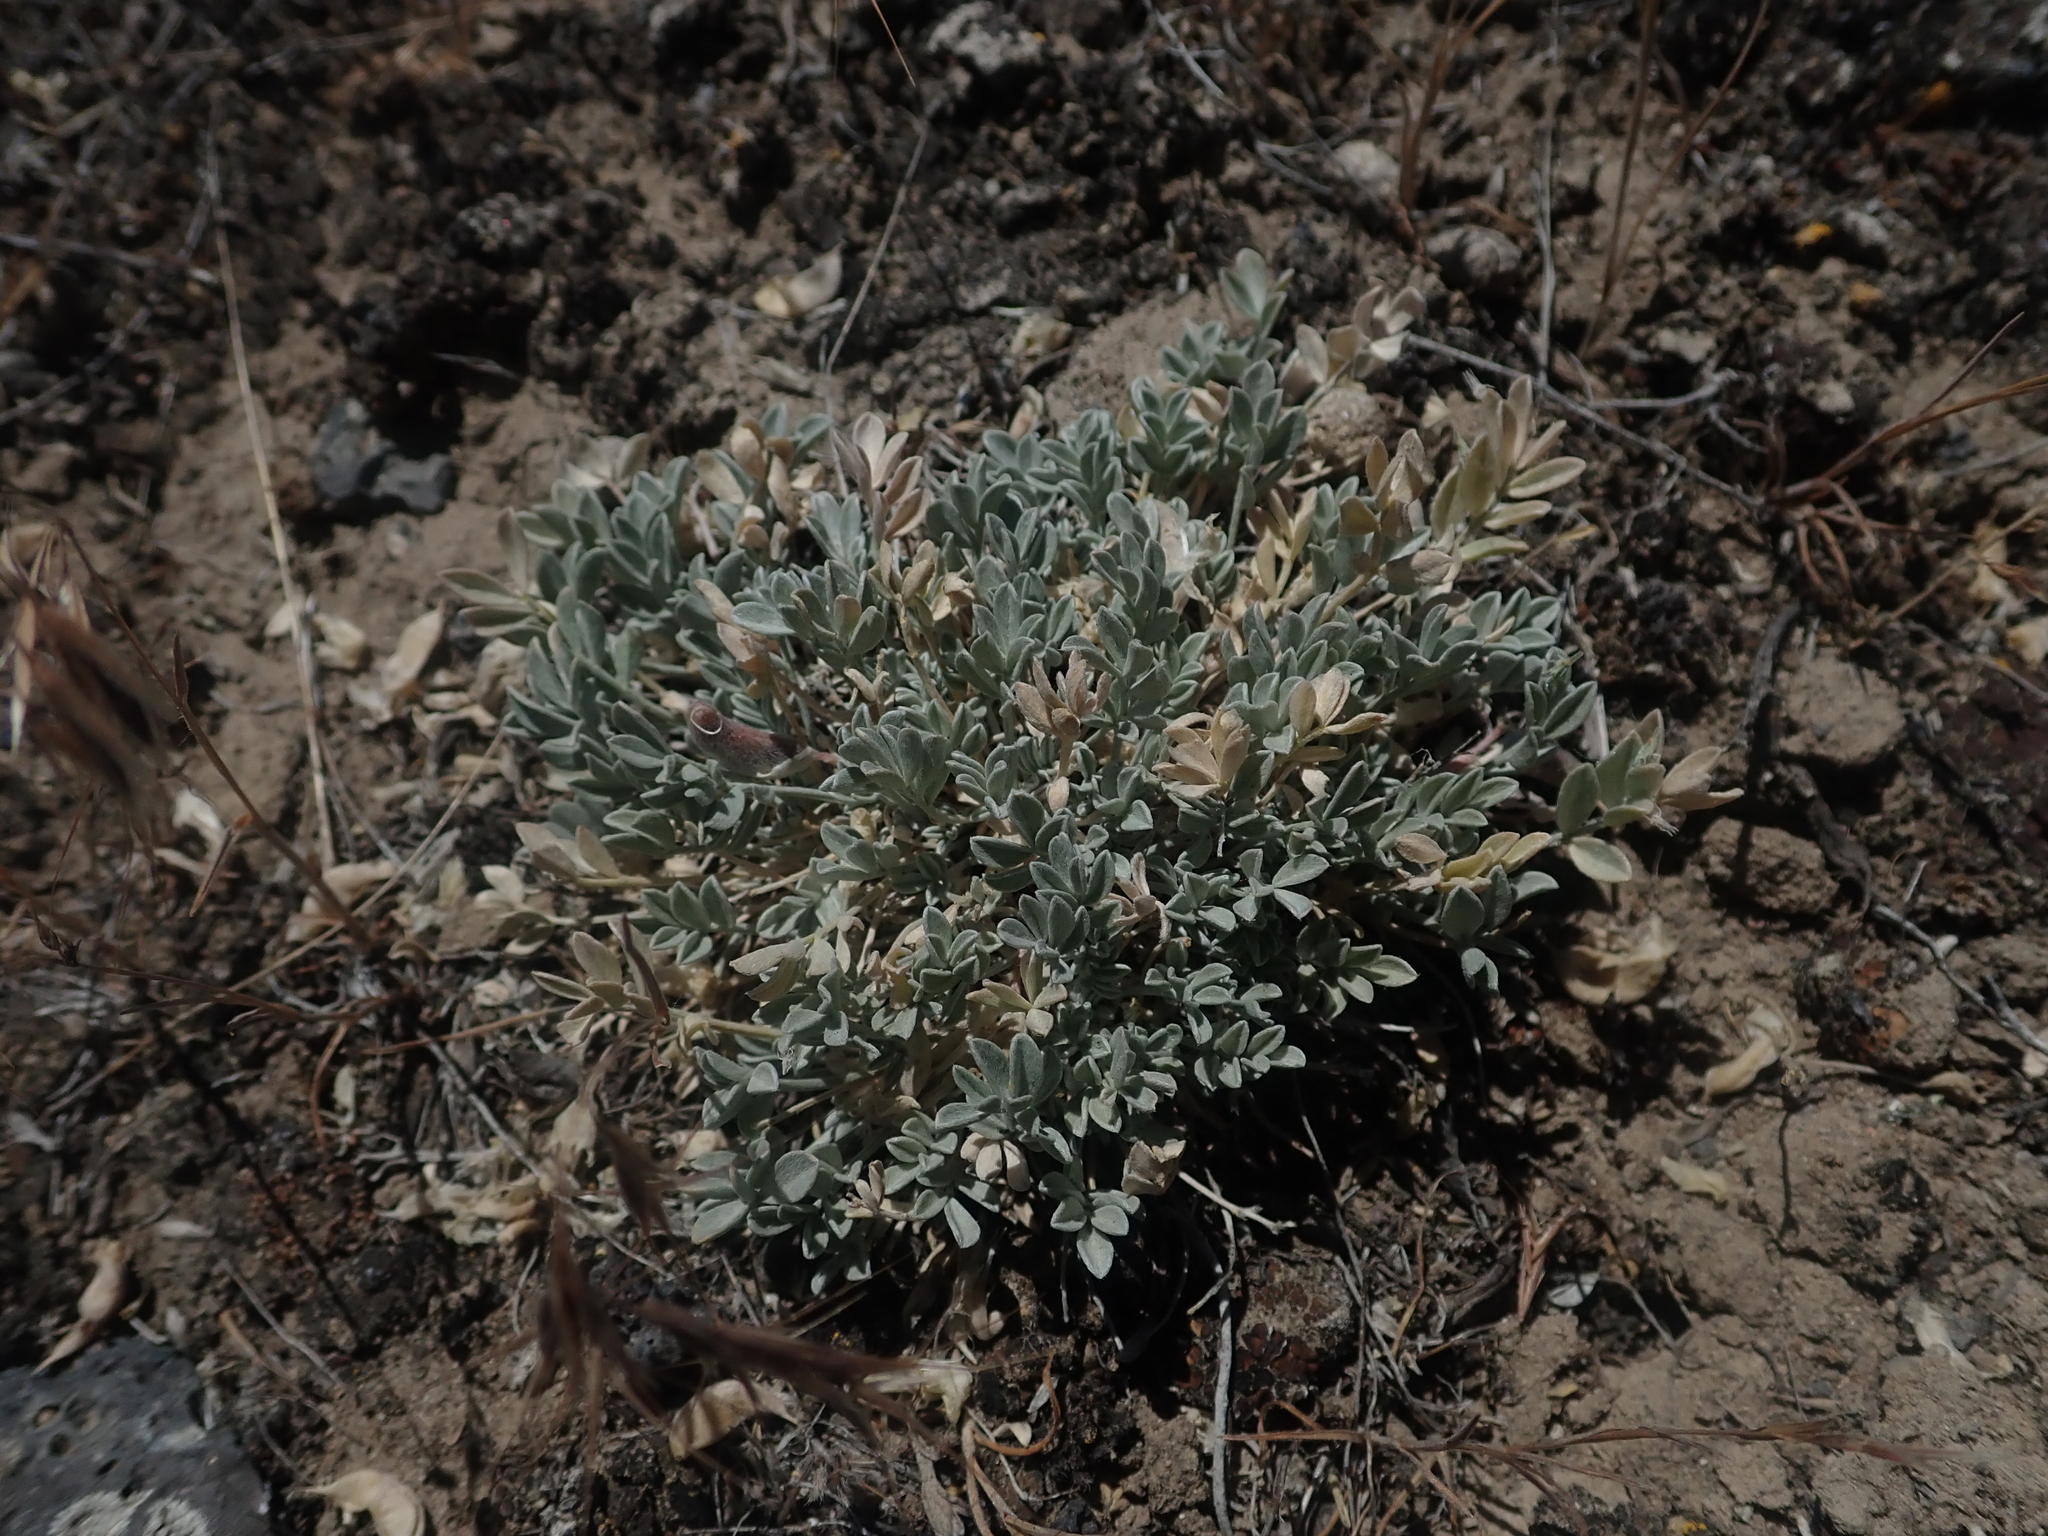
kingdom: Plantae
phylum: Tracheophyta
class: Magnoliopsida
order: Fabales
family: Fabaceae
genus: Astragalus
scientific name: Astragalus calycosus
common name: King's milkvetch
